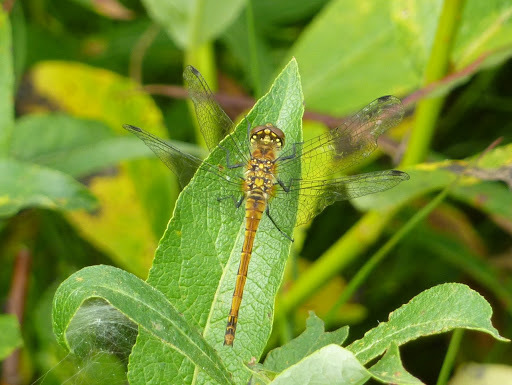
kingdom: Animalia
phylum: Arthropoda
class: Insecta
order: Odonata
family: Libellulidae
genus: Sympetrum
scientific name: Sympetrum danae
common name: Black darter
